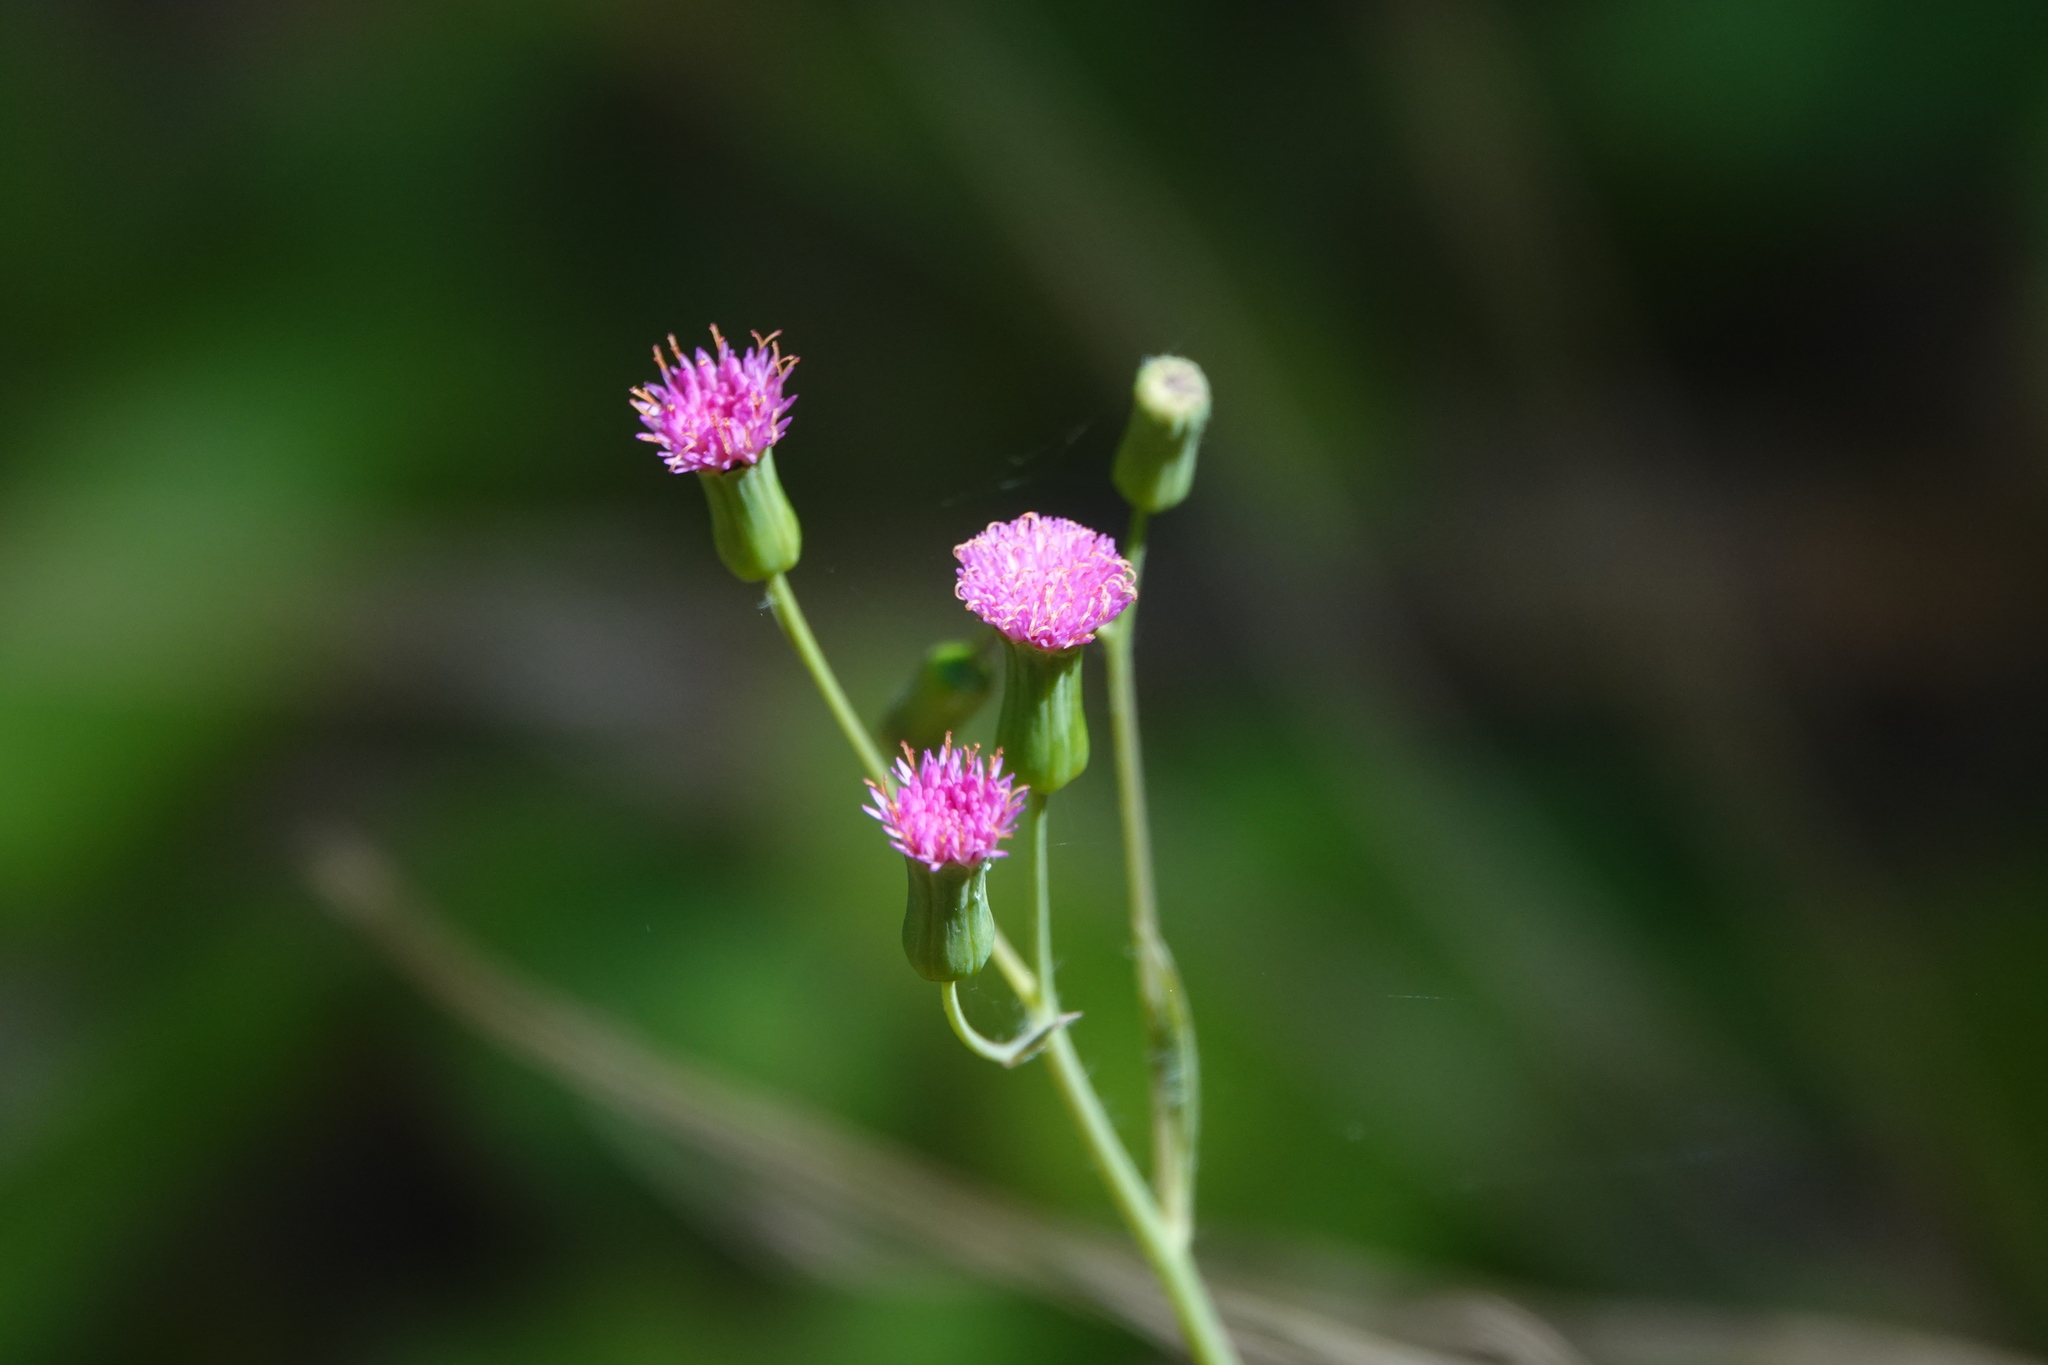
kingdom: Plantae
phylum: Tracheophyta
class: Magnoliopsida
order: Asterales
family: Asteraceae
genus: Emilia
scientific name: Emilia sonchifolia
